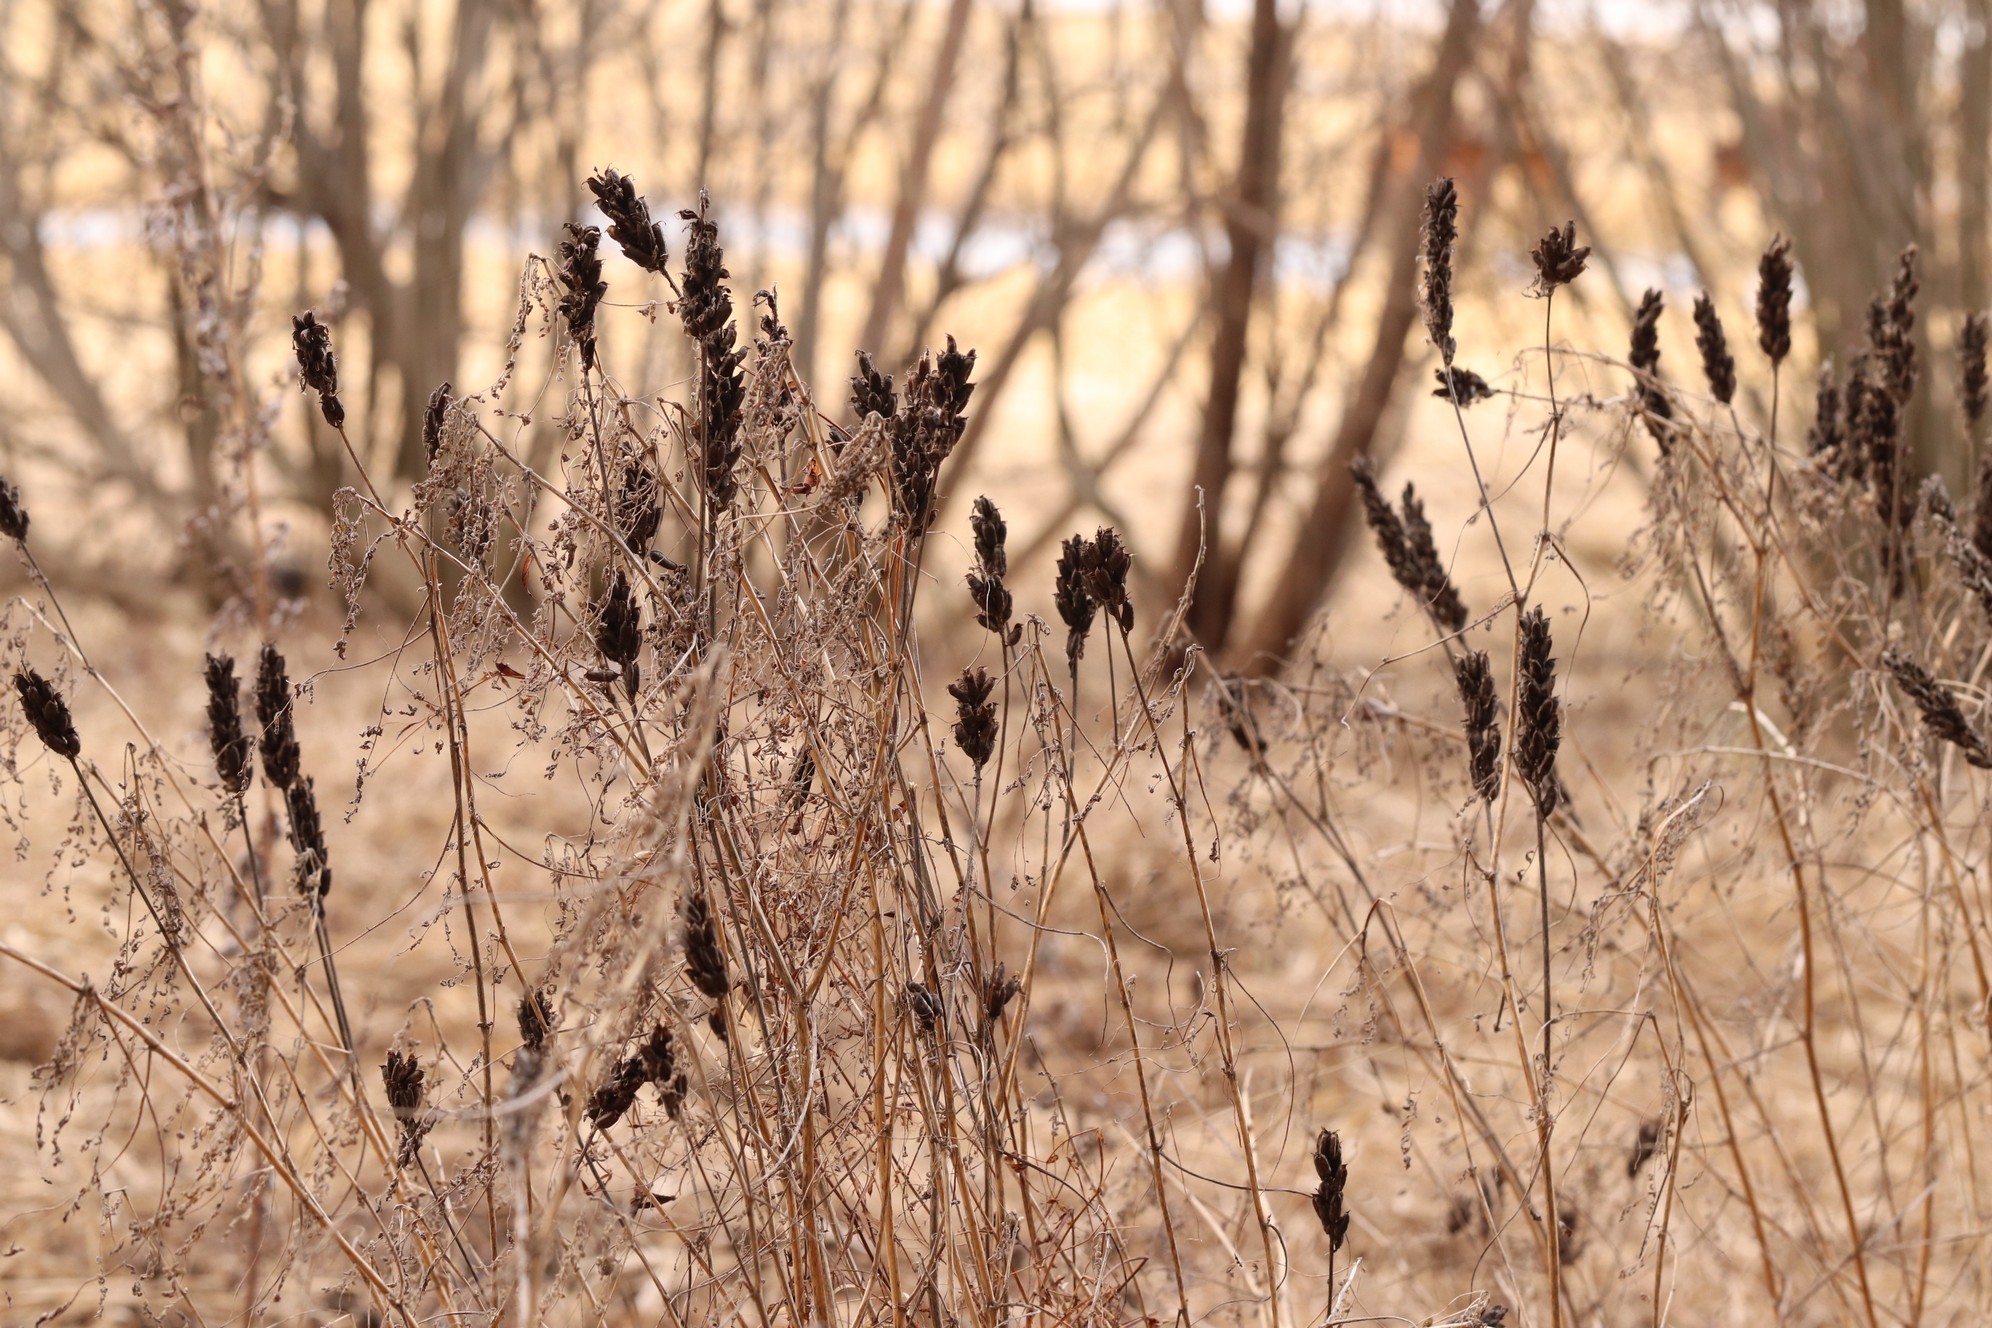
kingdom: Plantae
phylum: Tracheophyta
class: Magnoliopsida
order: Fabales
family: Fabaceae
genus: Astragalus
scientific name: Astragalus uliginosus
